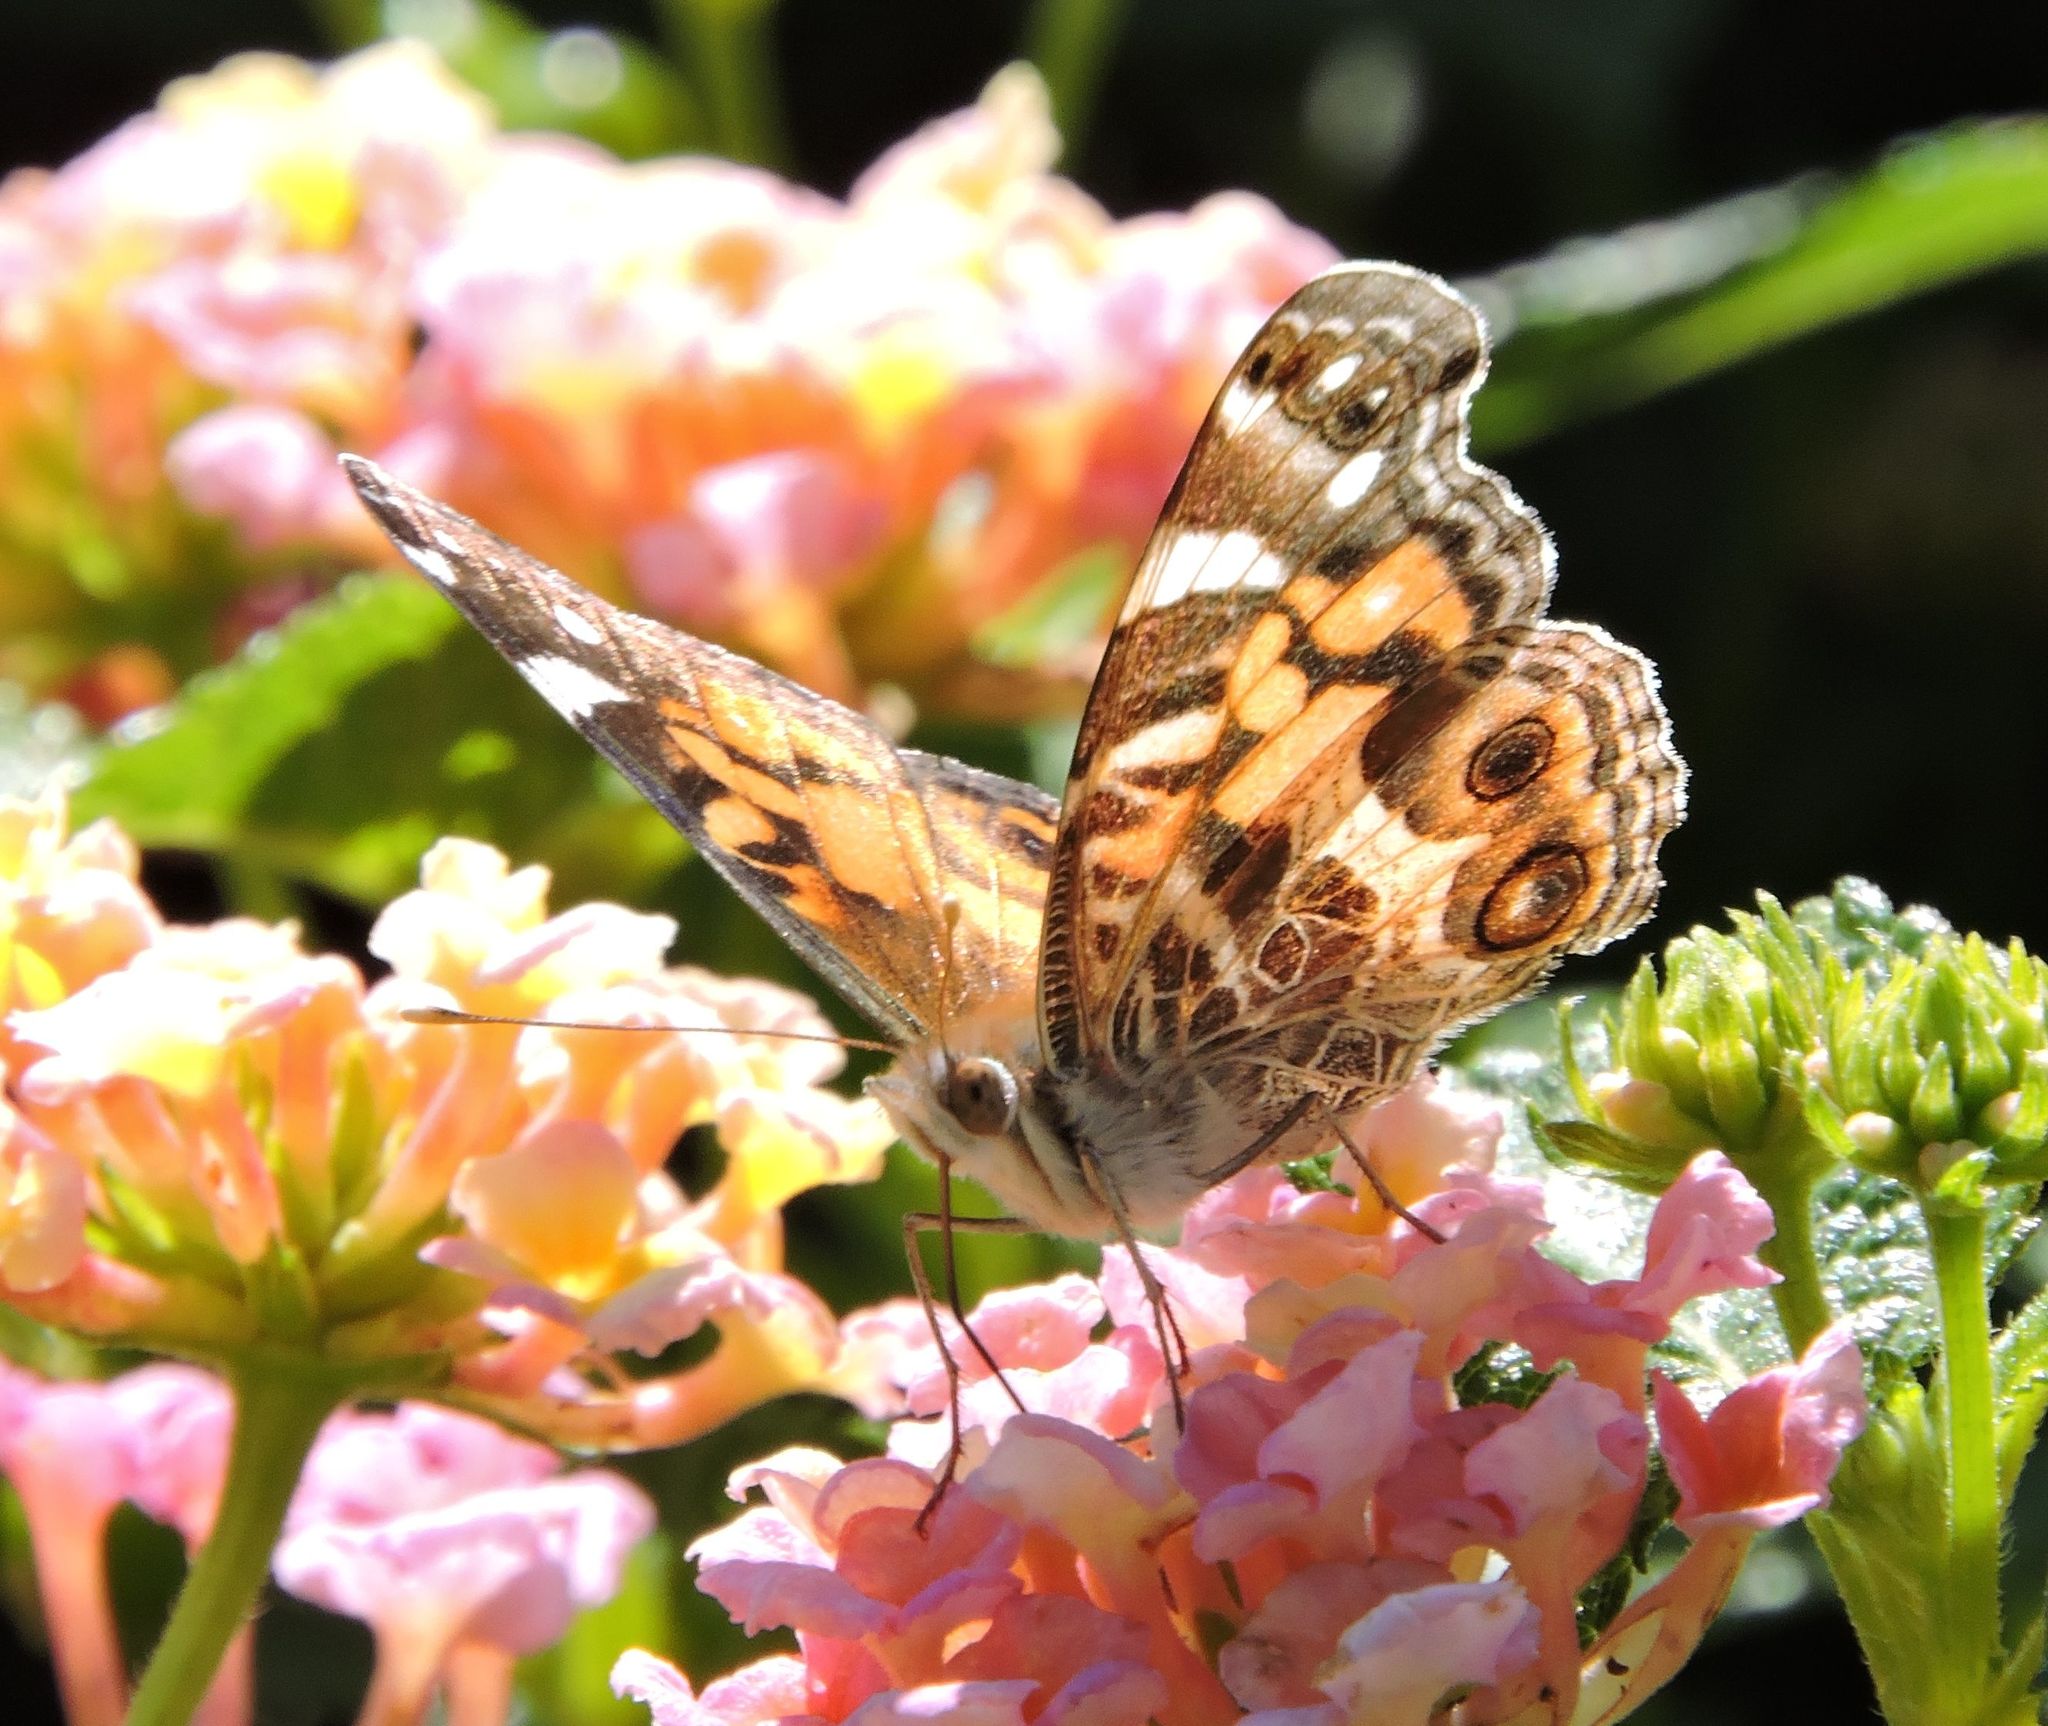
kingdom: Animalia
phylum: Arthropoda
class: Insecta
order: Lepidoptera
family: Nymphalidae
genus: Vanessa
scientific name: Vanessa virginiensis
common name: American lady
